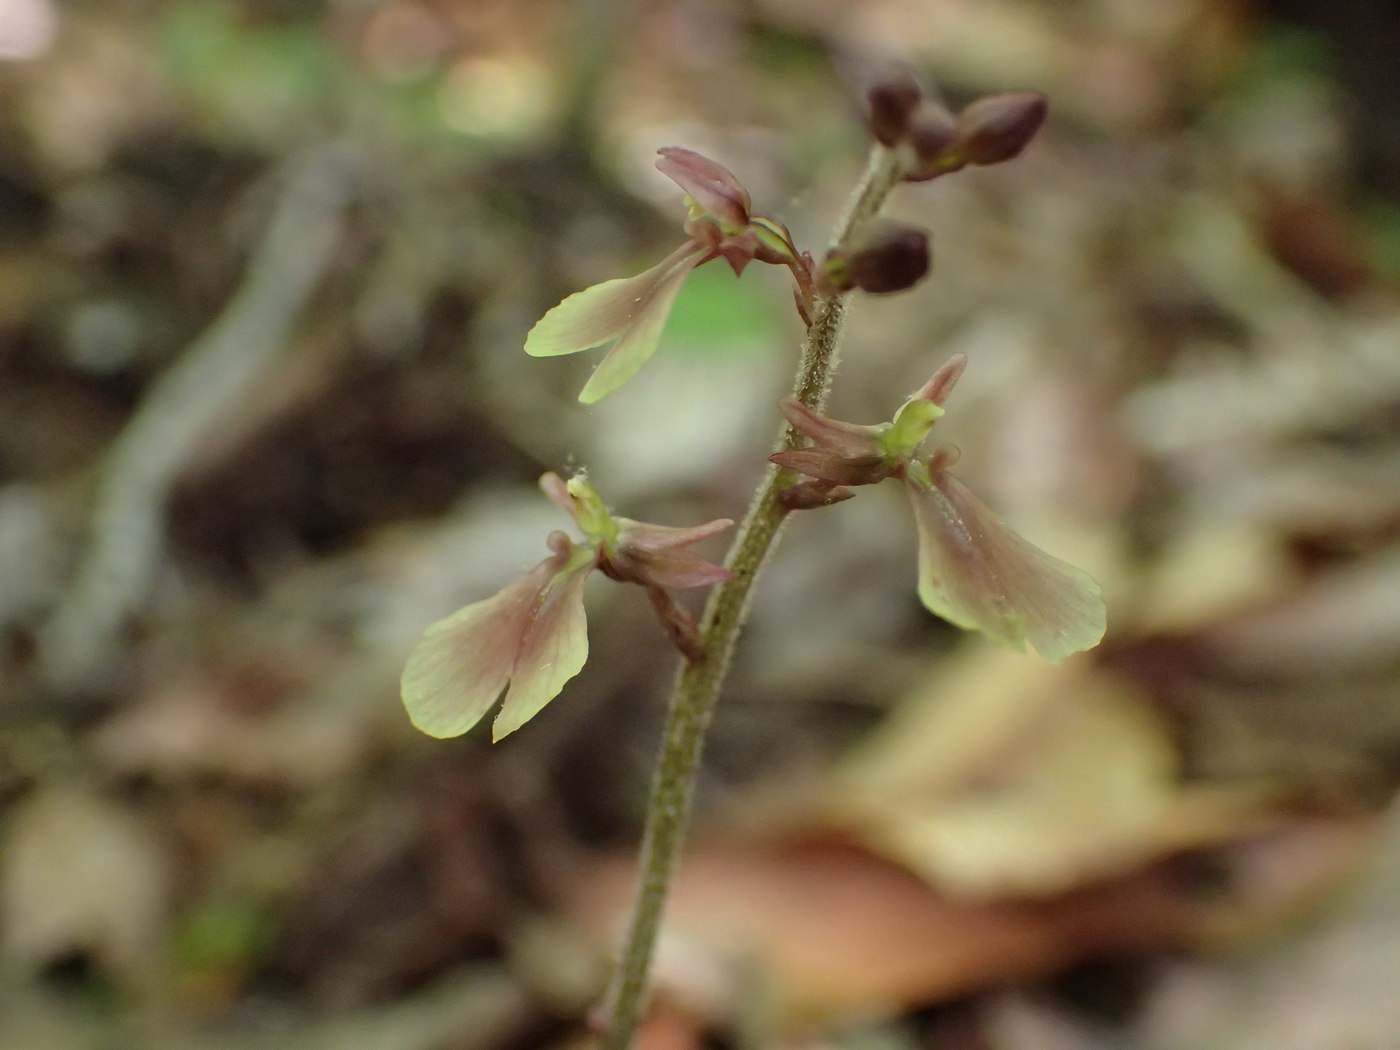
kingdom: Plantae
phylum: Tracheophyta
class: Liliopsida
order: Asparagales
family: Orchidaceae
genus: Neottia
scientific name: Neottia smallii
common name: Kidneyleaf twayblade
